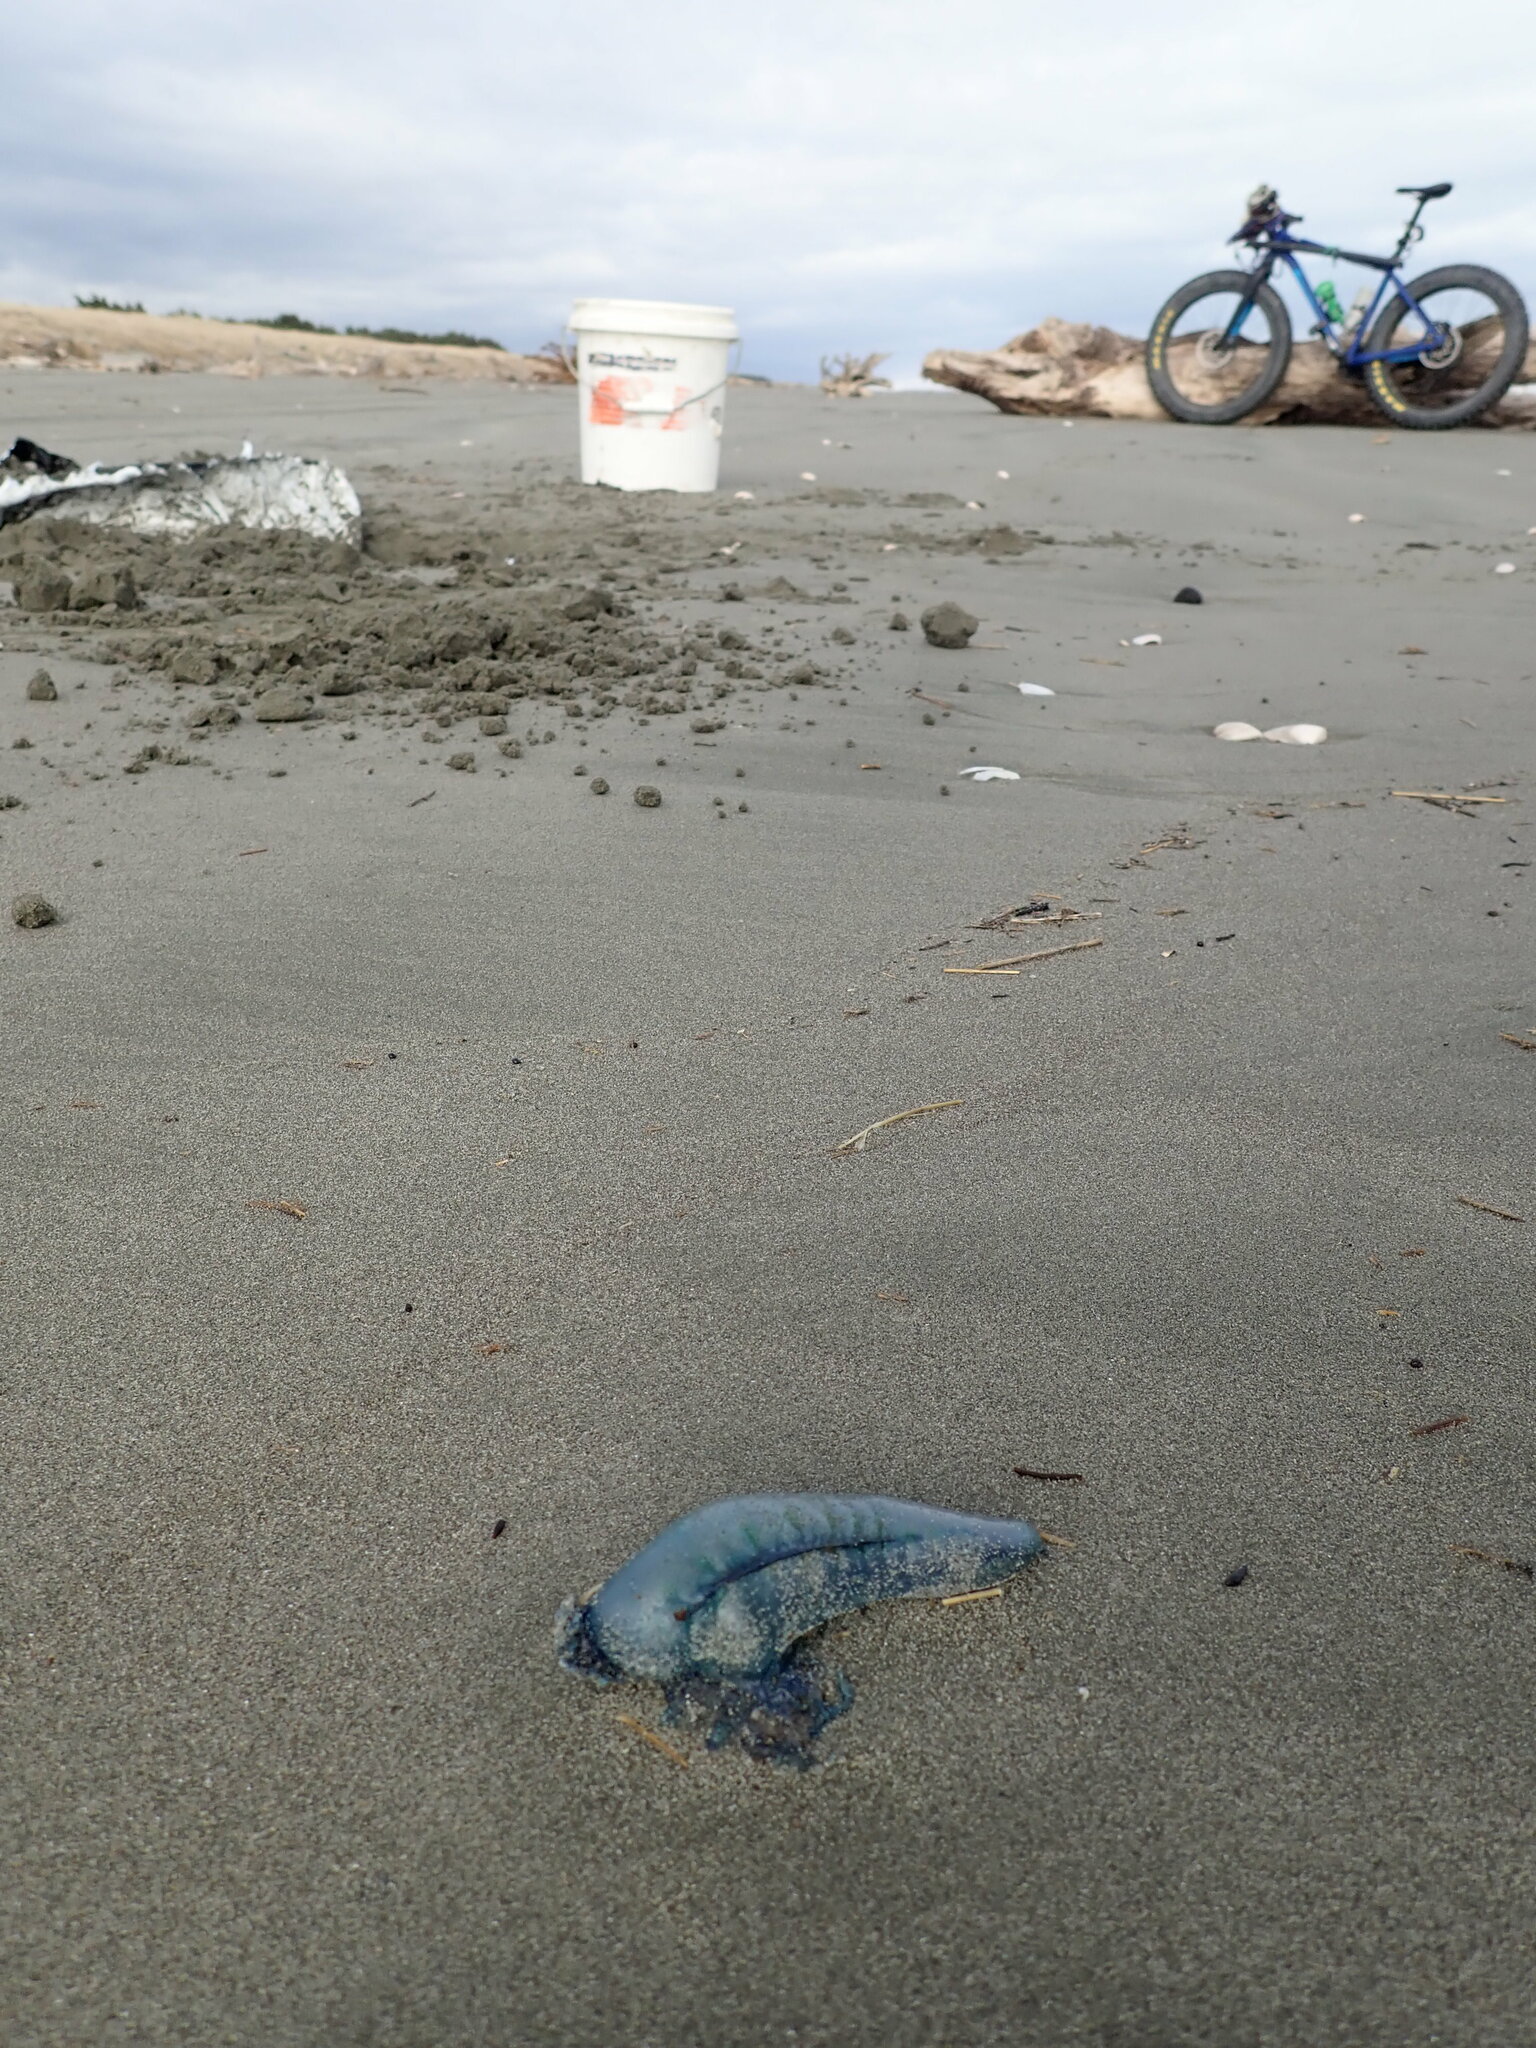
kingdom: Animalia
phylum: Cnidaria
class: Hydrozoa
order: Siphonophorae
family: Physaliidae
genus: Physalia
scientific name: Physalia physalis
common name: Portuguese man-of-war
